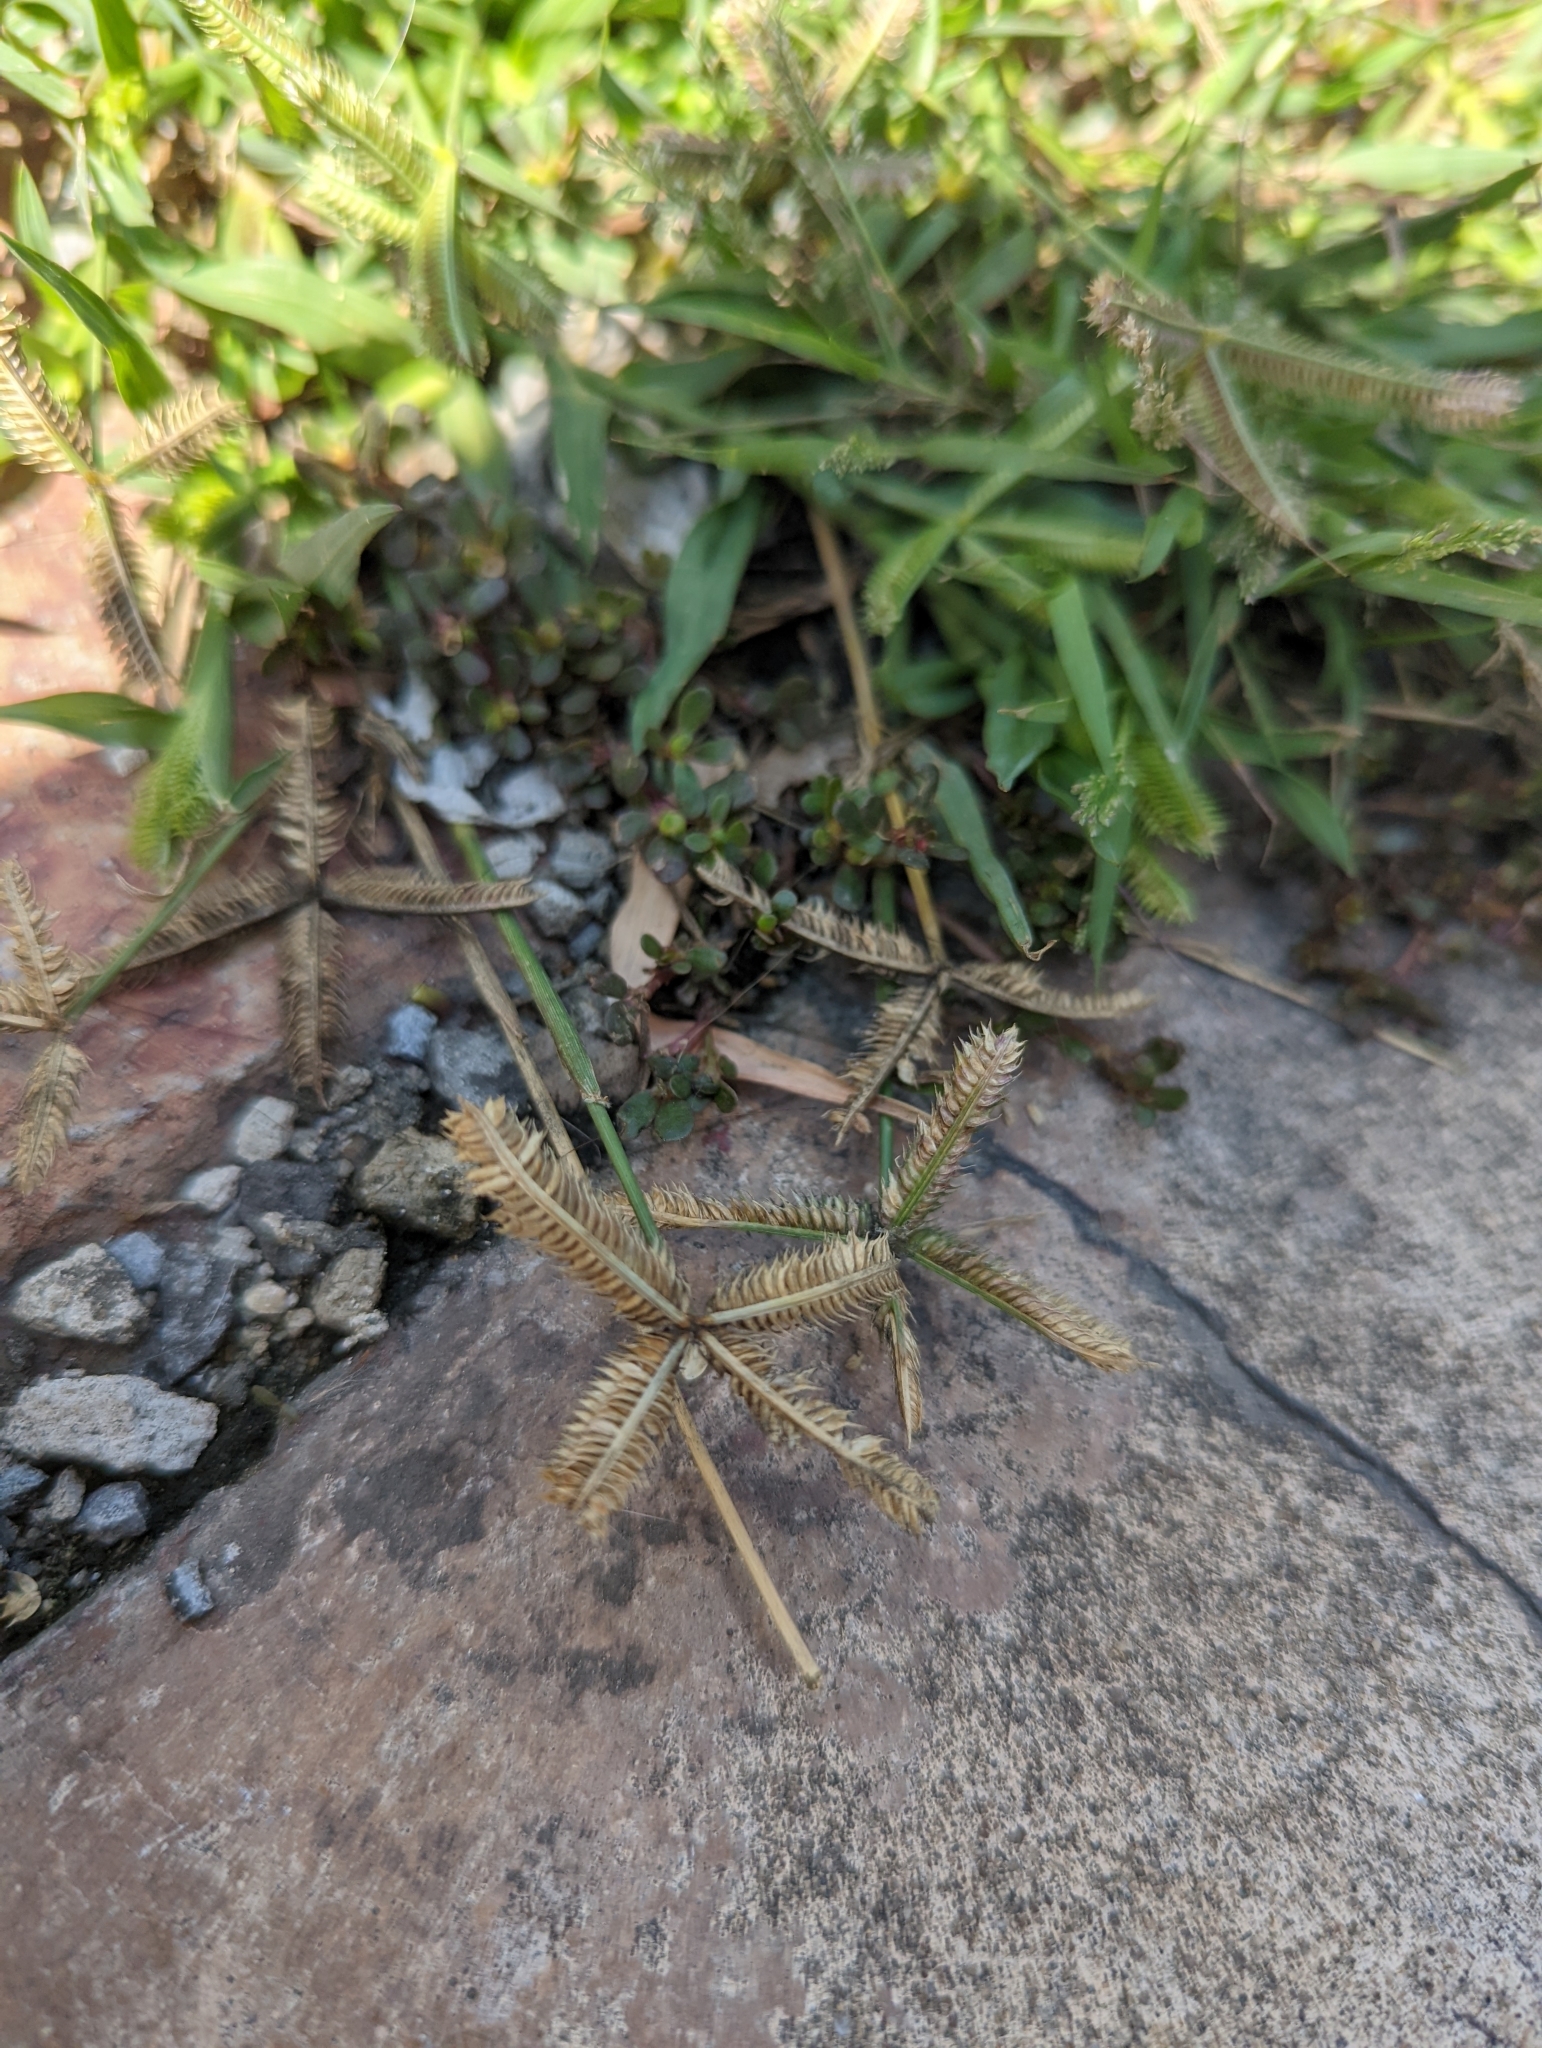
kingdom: Plantae
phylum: Tracheophyta
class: Liliopsida
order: Poales
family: Poaceae
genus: Dactyloctenium
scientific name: Dactyloctenium aegyptium
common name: Egyptian grass
